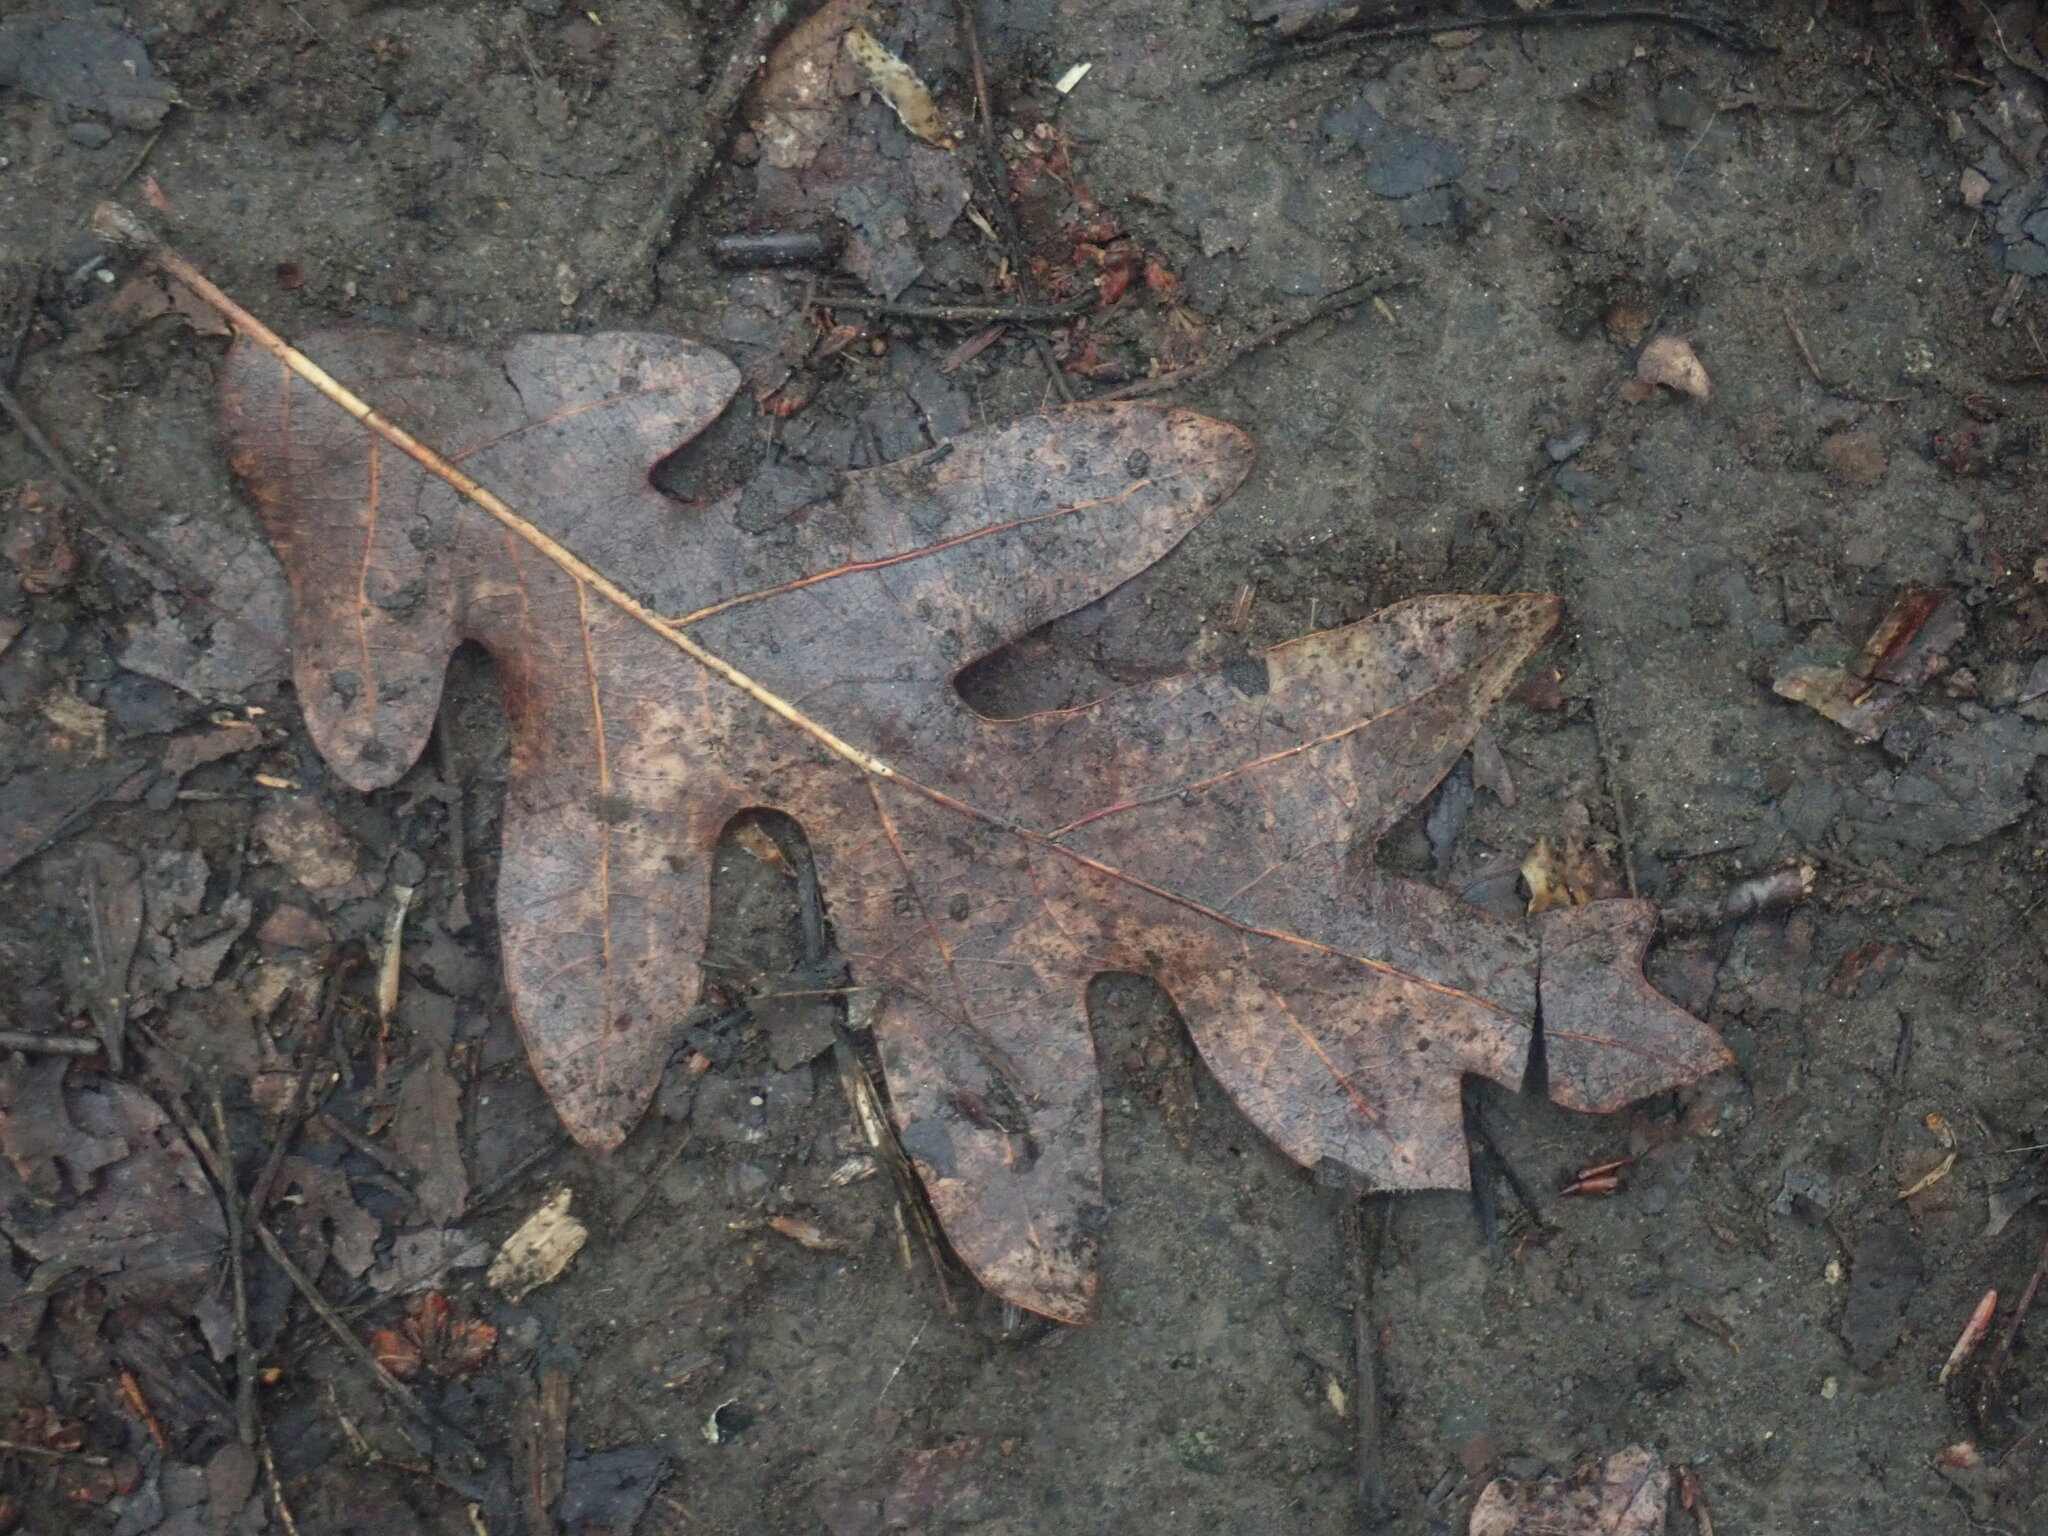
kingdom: Plantae
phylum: Tracheophyta
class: Magnoliopsida
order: Fagales
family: Fagaceae
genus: Quercus
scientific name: Quercus alba
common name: White oak
